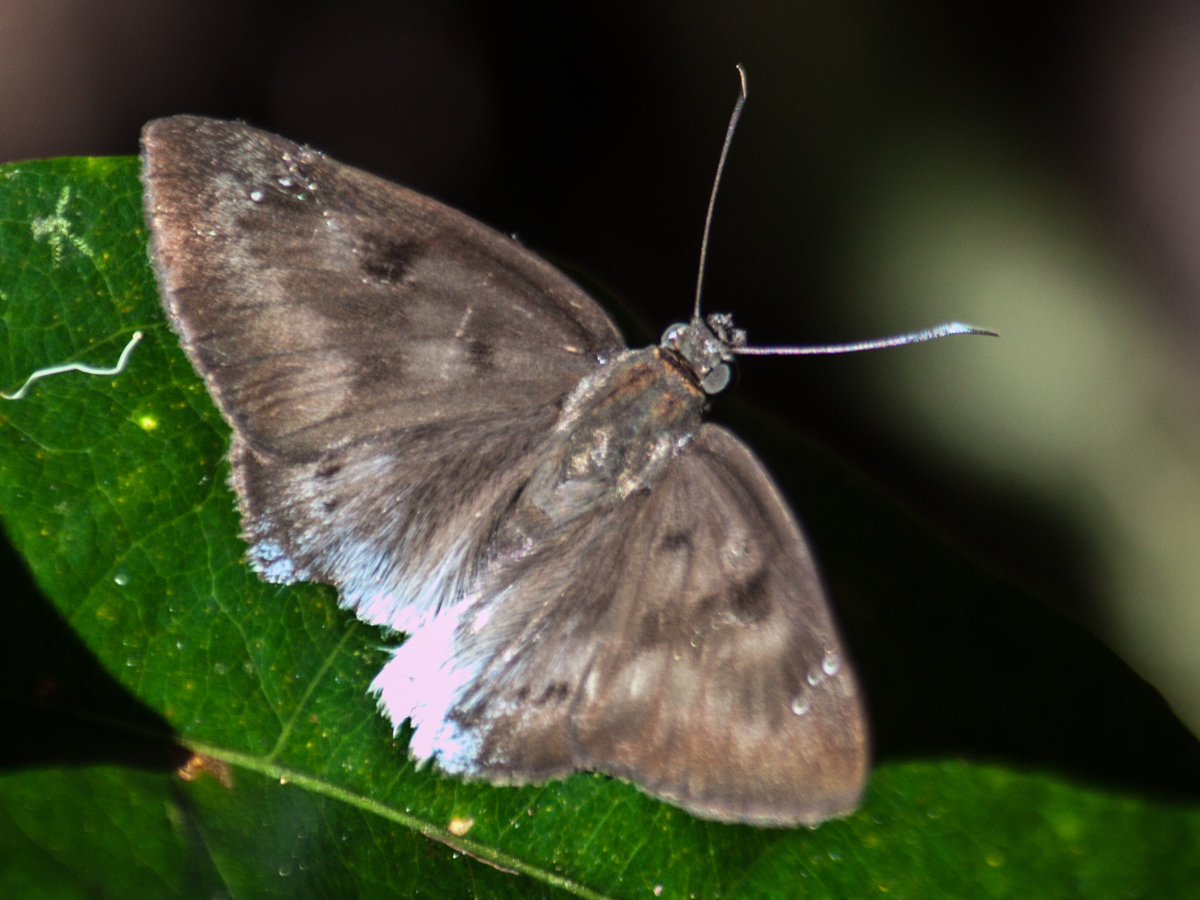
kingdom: Animalia
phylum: Arthropoda
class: Insecta
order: Lepidoptera
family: Hesperiidae
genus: Tagiades
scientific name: Tagiades gana
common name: Suffused snow flat
